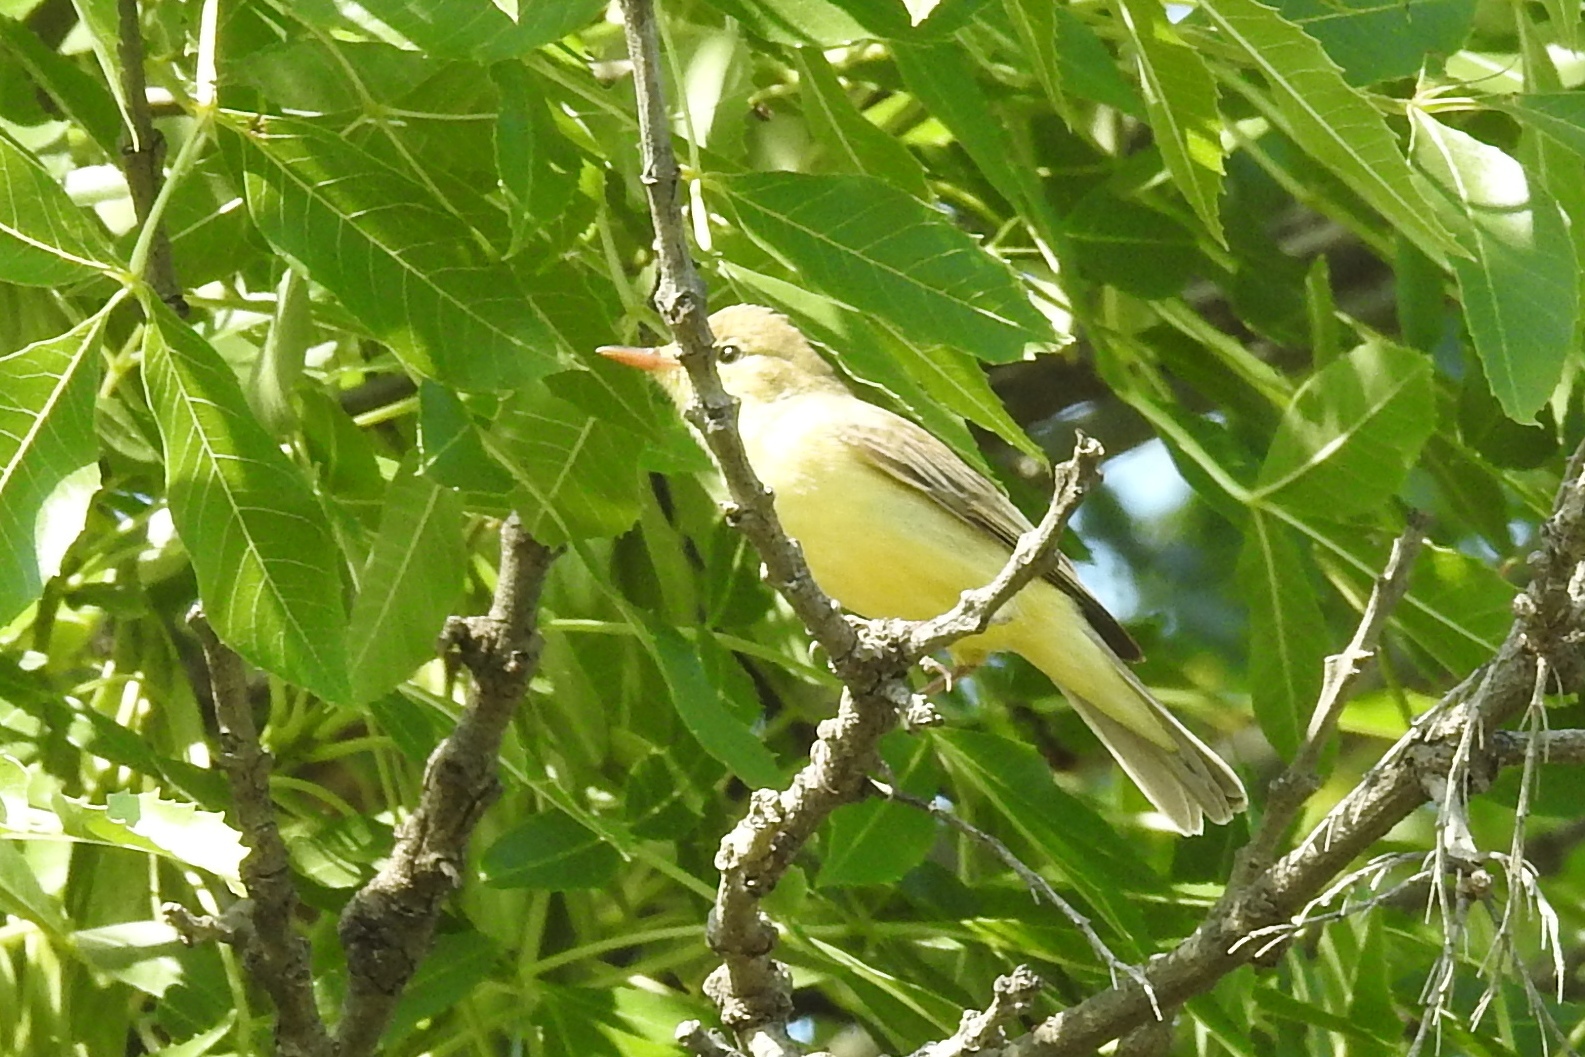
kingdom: Animalia
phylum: Chordata
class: Aves
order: Passeriformes
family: Acrocephalidae
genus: Hippolais
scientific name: Hippolais polyglotta
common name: Melodious warbler
